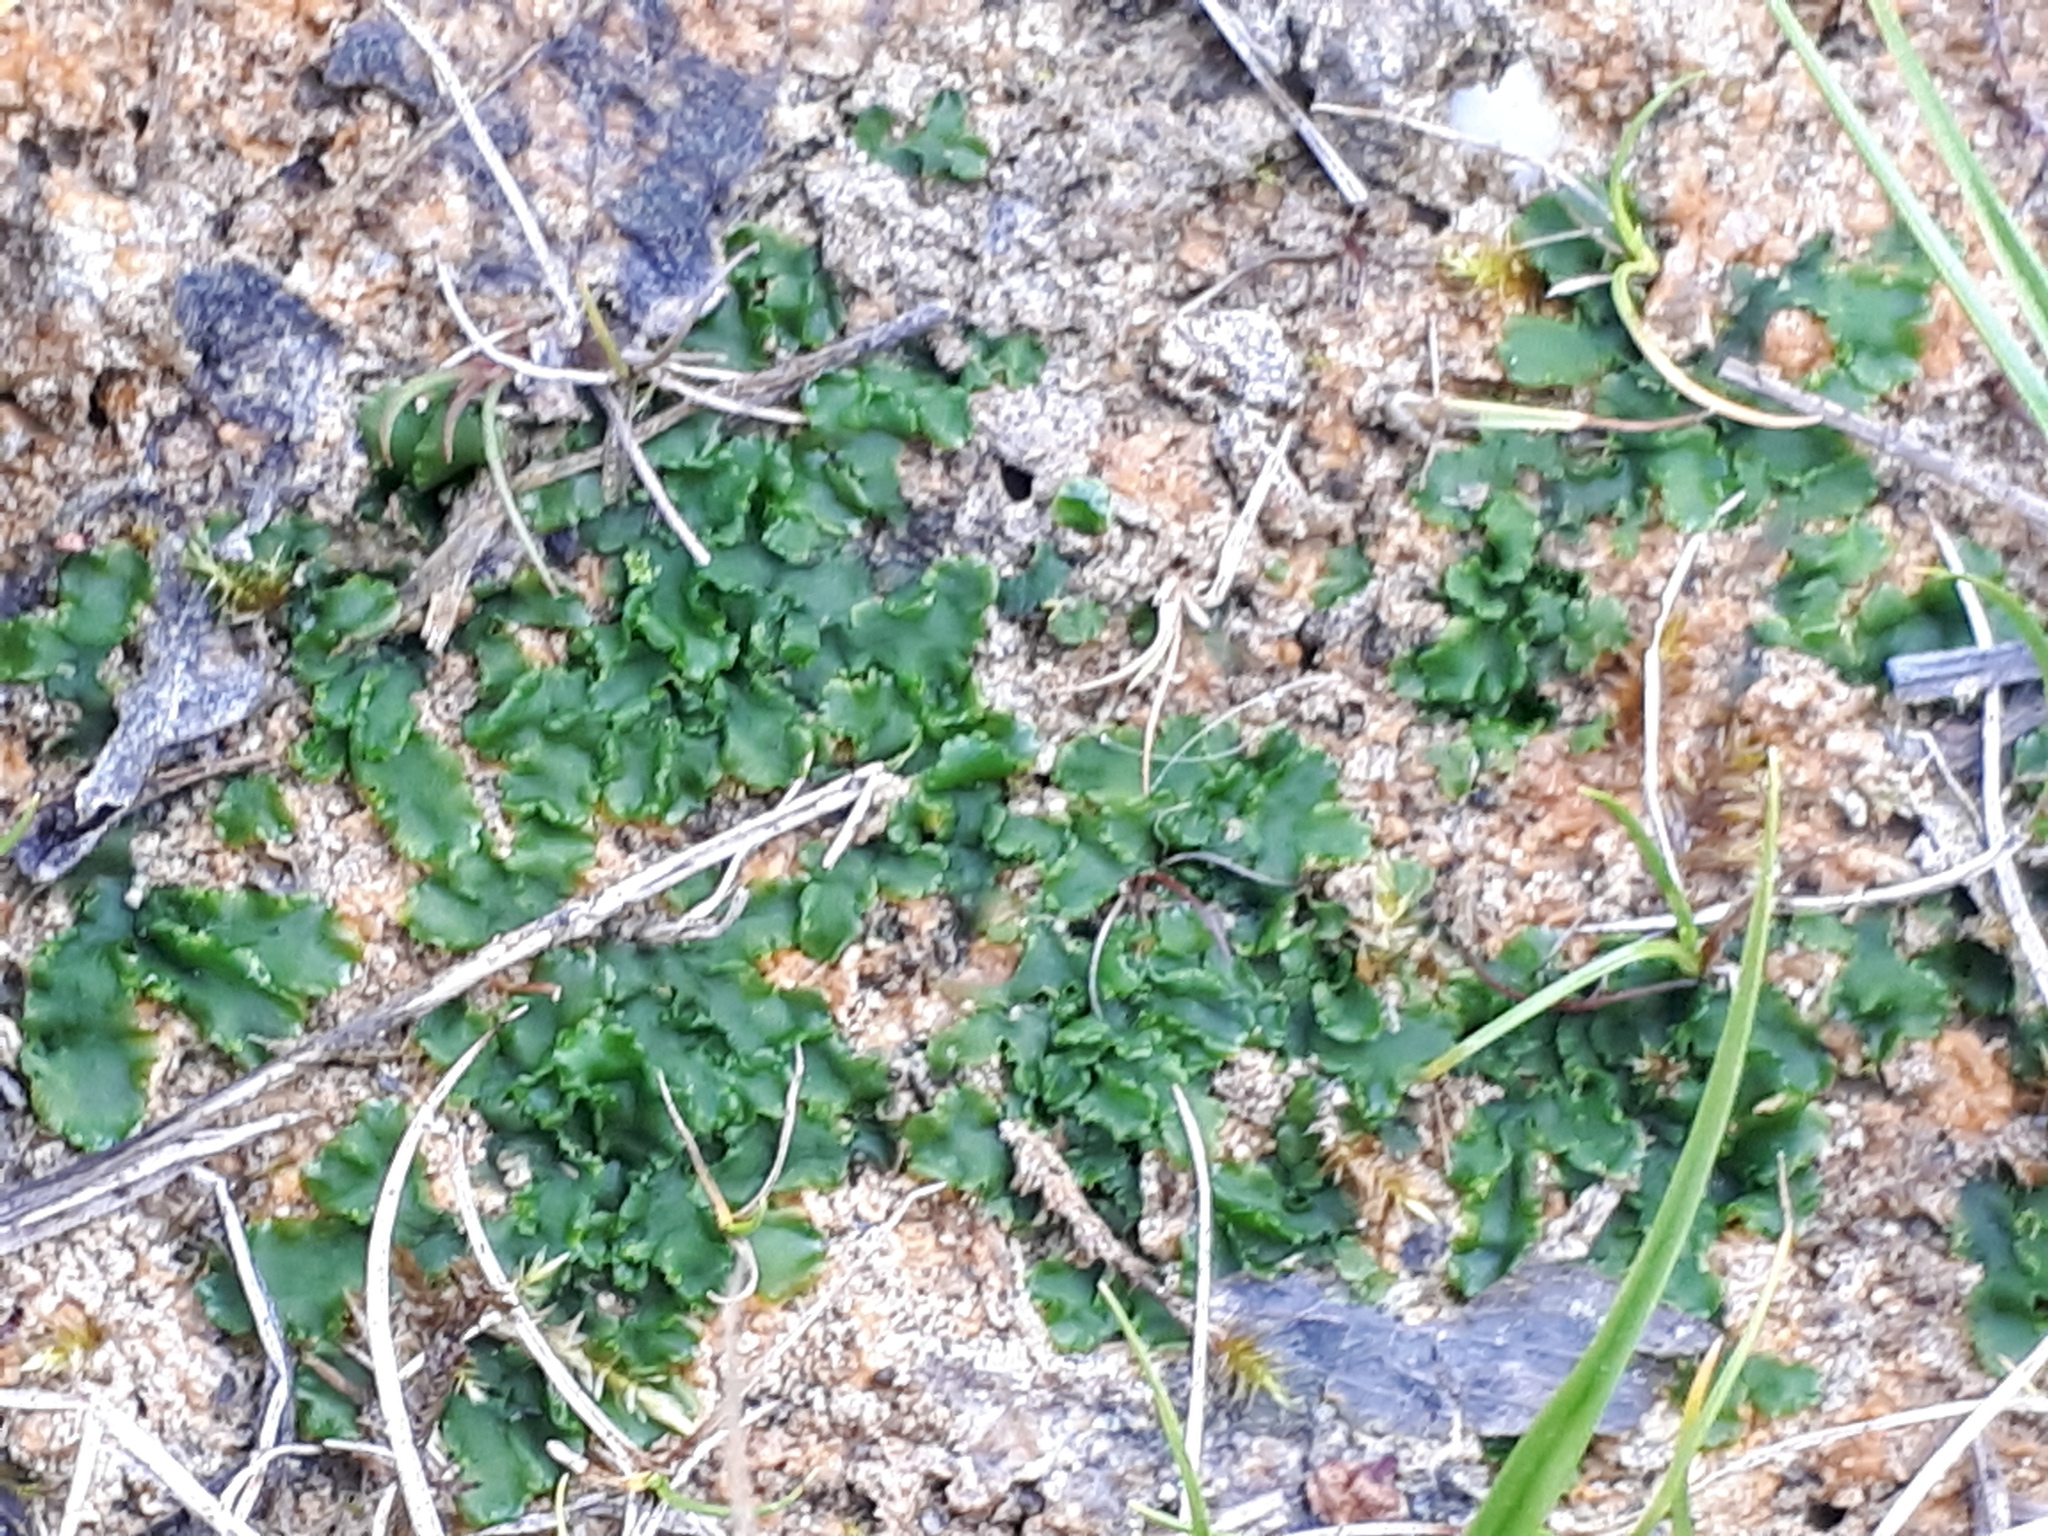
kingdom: Plantae
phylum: Marchantiophyta
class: Jungermanniopsida
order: Metzgeriales
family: Aneuraceae
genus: Aneura
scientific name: Aneura pinguis
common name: Common greasewort
